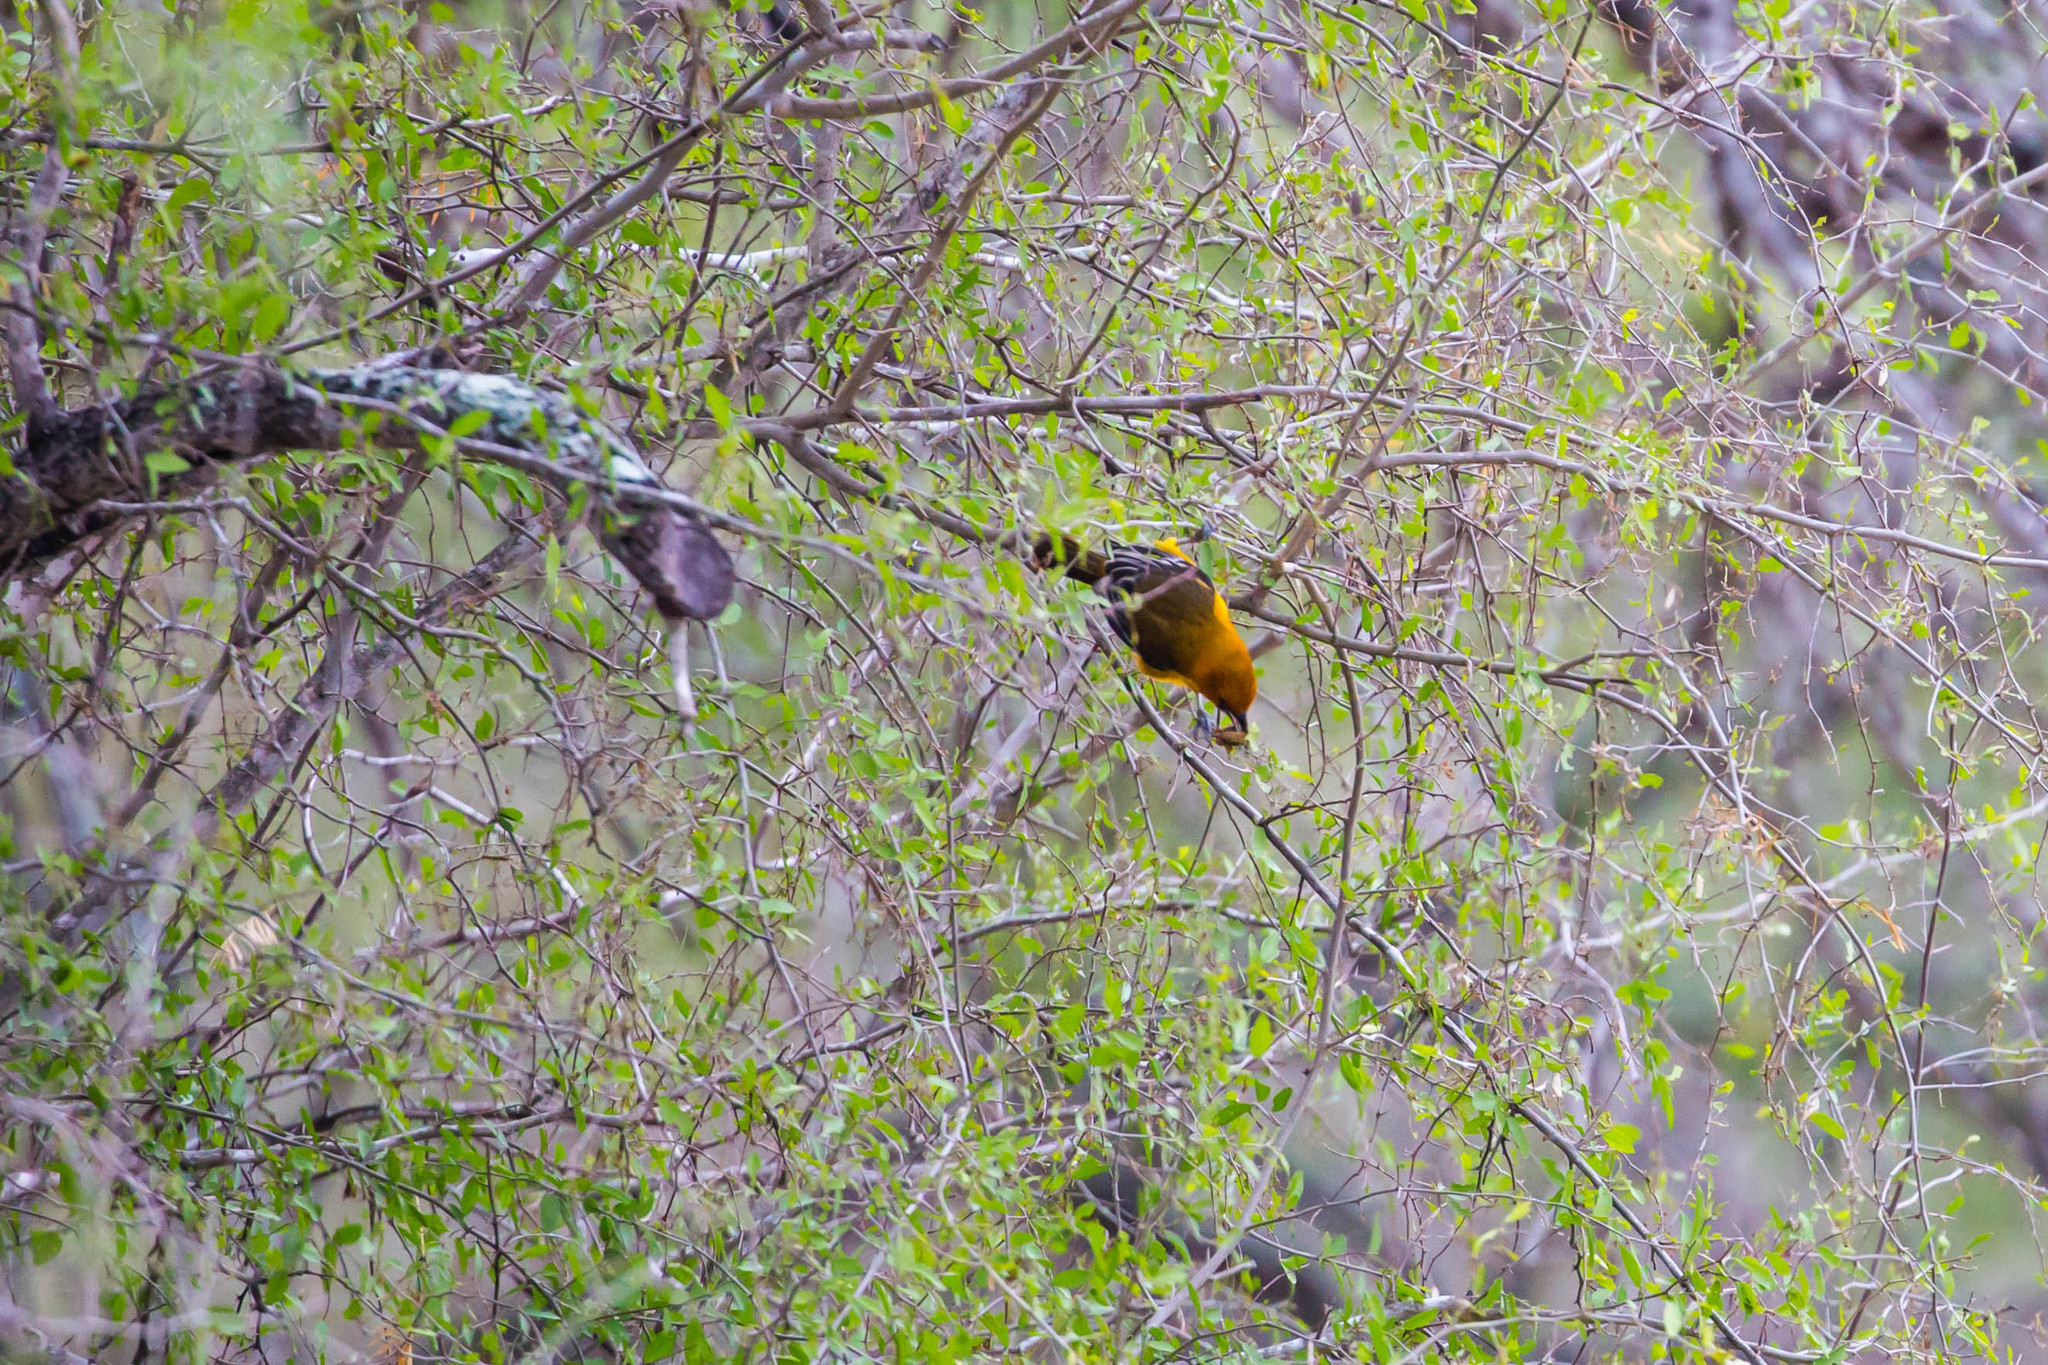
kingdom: Animalia
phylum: Chordata
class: Aves
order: Passeriformes
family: Icteridae
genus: Icterus
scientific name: Icterus gularis
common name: Altamira oriole
